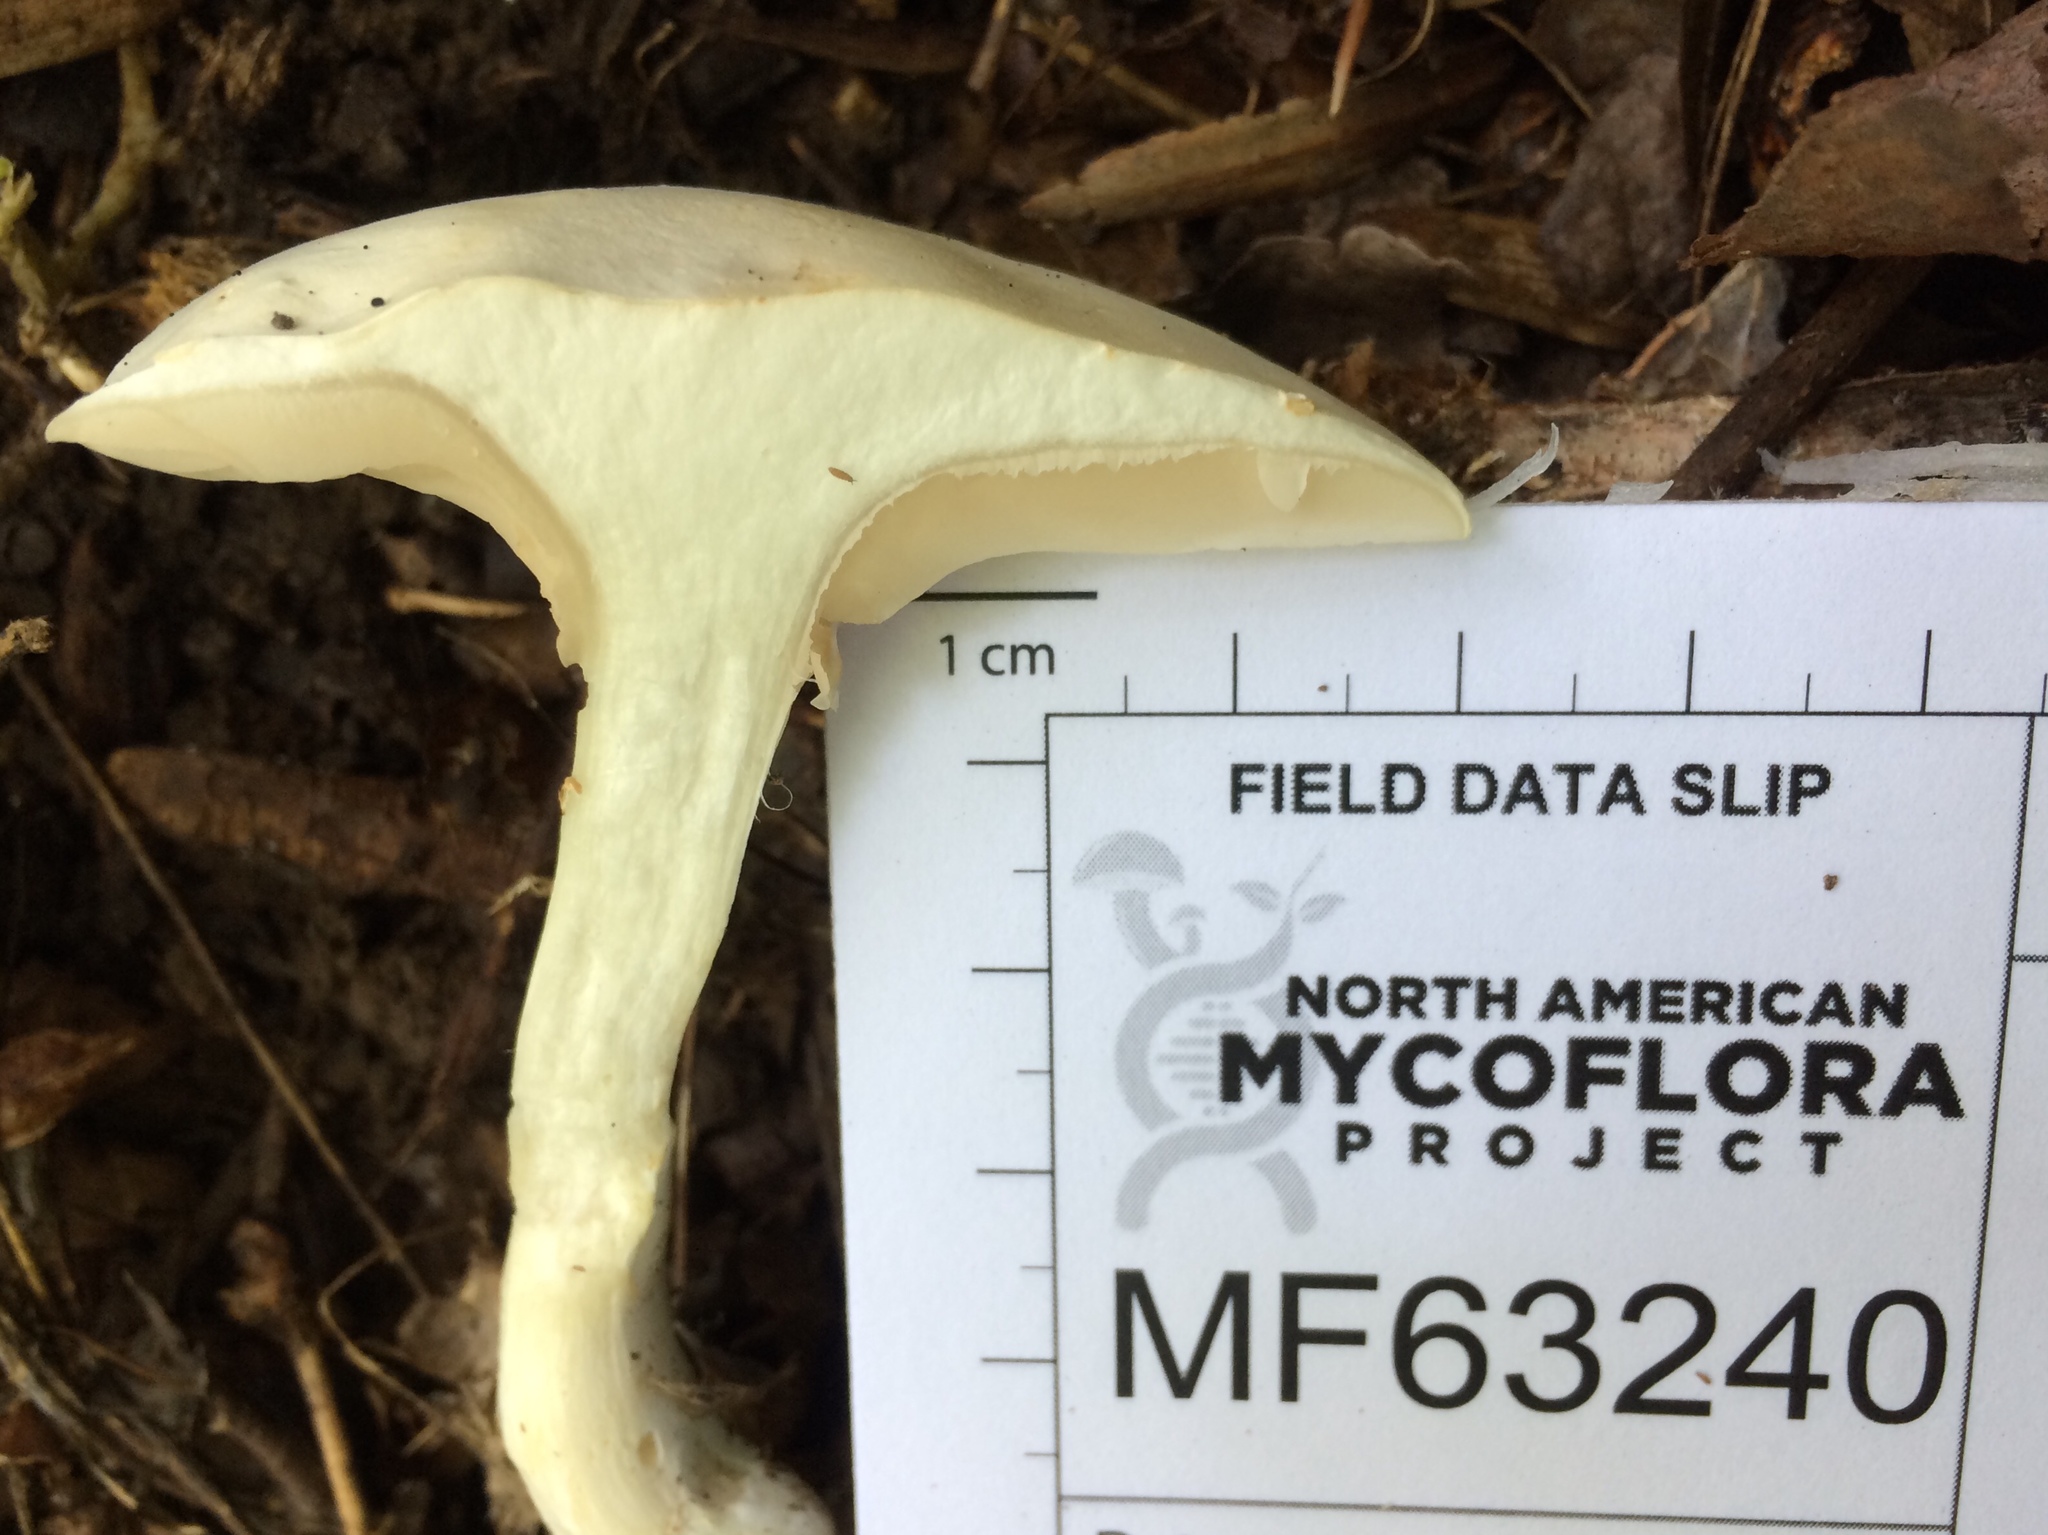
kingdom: Fungi
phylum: Basidiomycota
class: Agaricomycetes
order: Agaricales
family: Entolomataceae
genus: Clitopilus
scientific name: Clitopilus prunulus
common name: The miller
